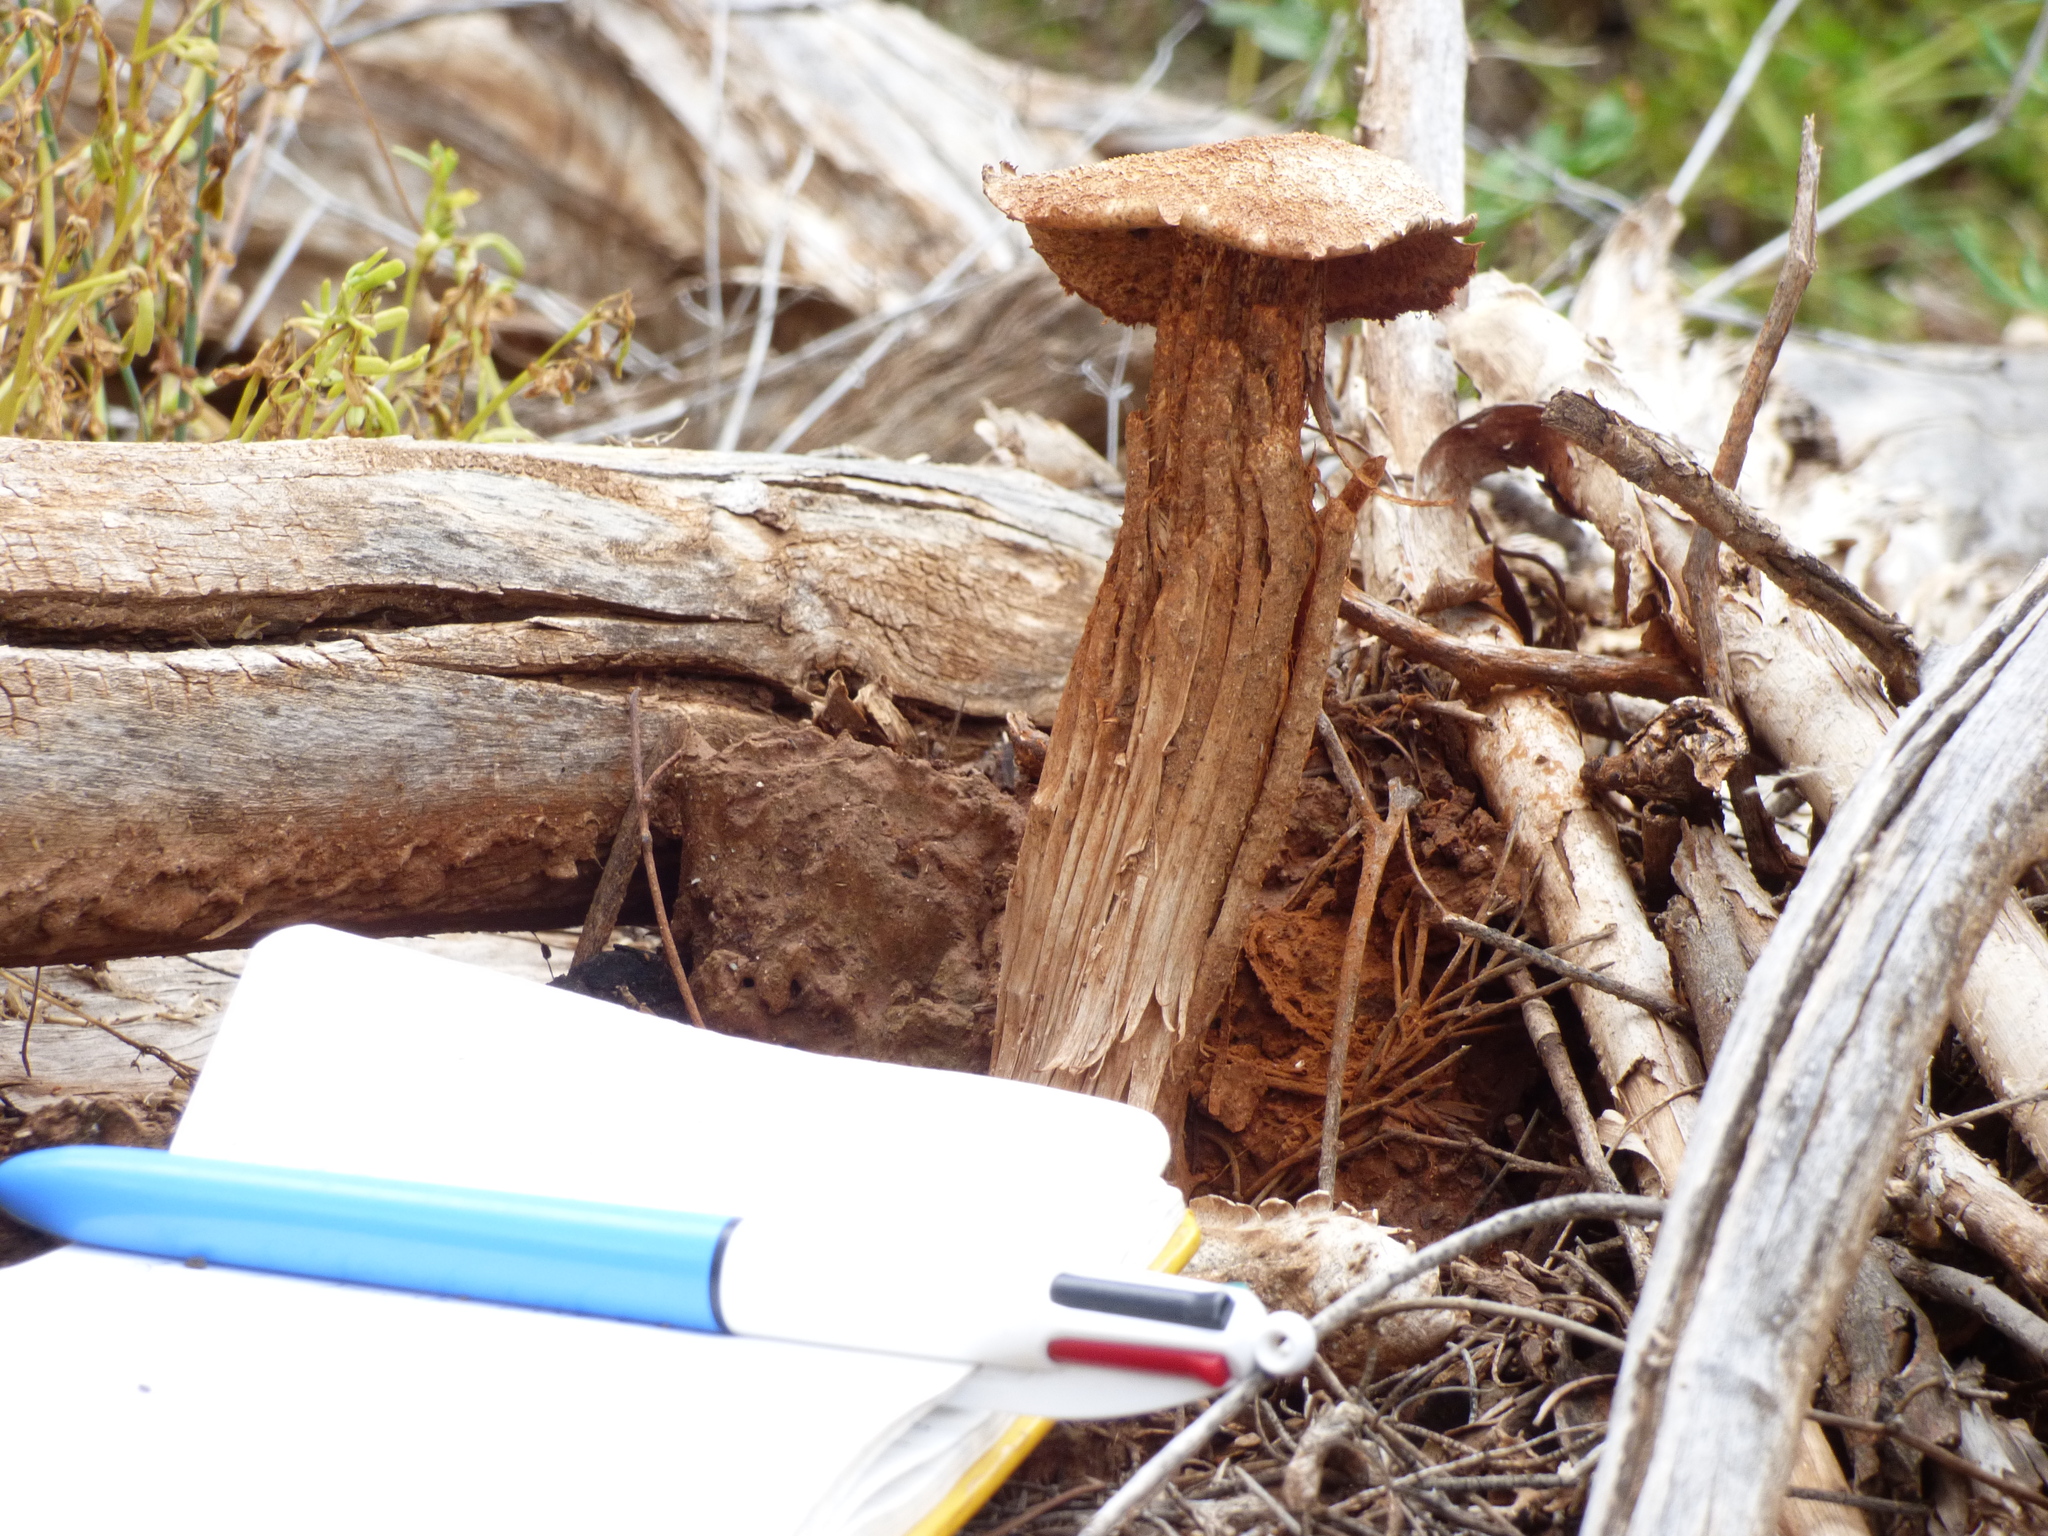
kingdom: Fungi
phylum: Basidiomycota
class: Agaricomycetes
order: Agaricales
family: Agaricaceae
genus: Battarrea
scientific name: Battarrea phalloides
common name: Sandy stiltball
